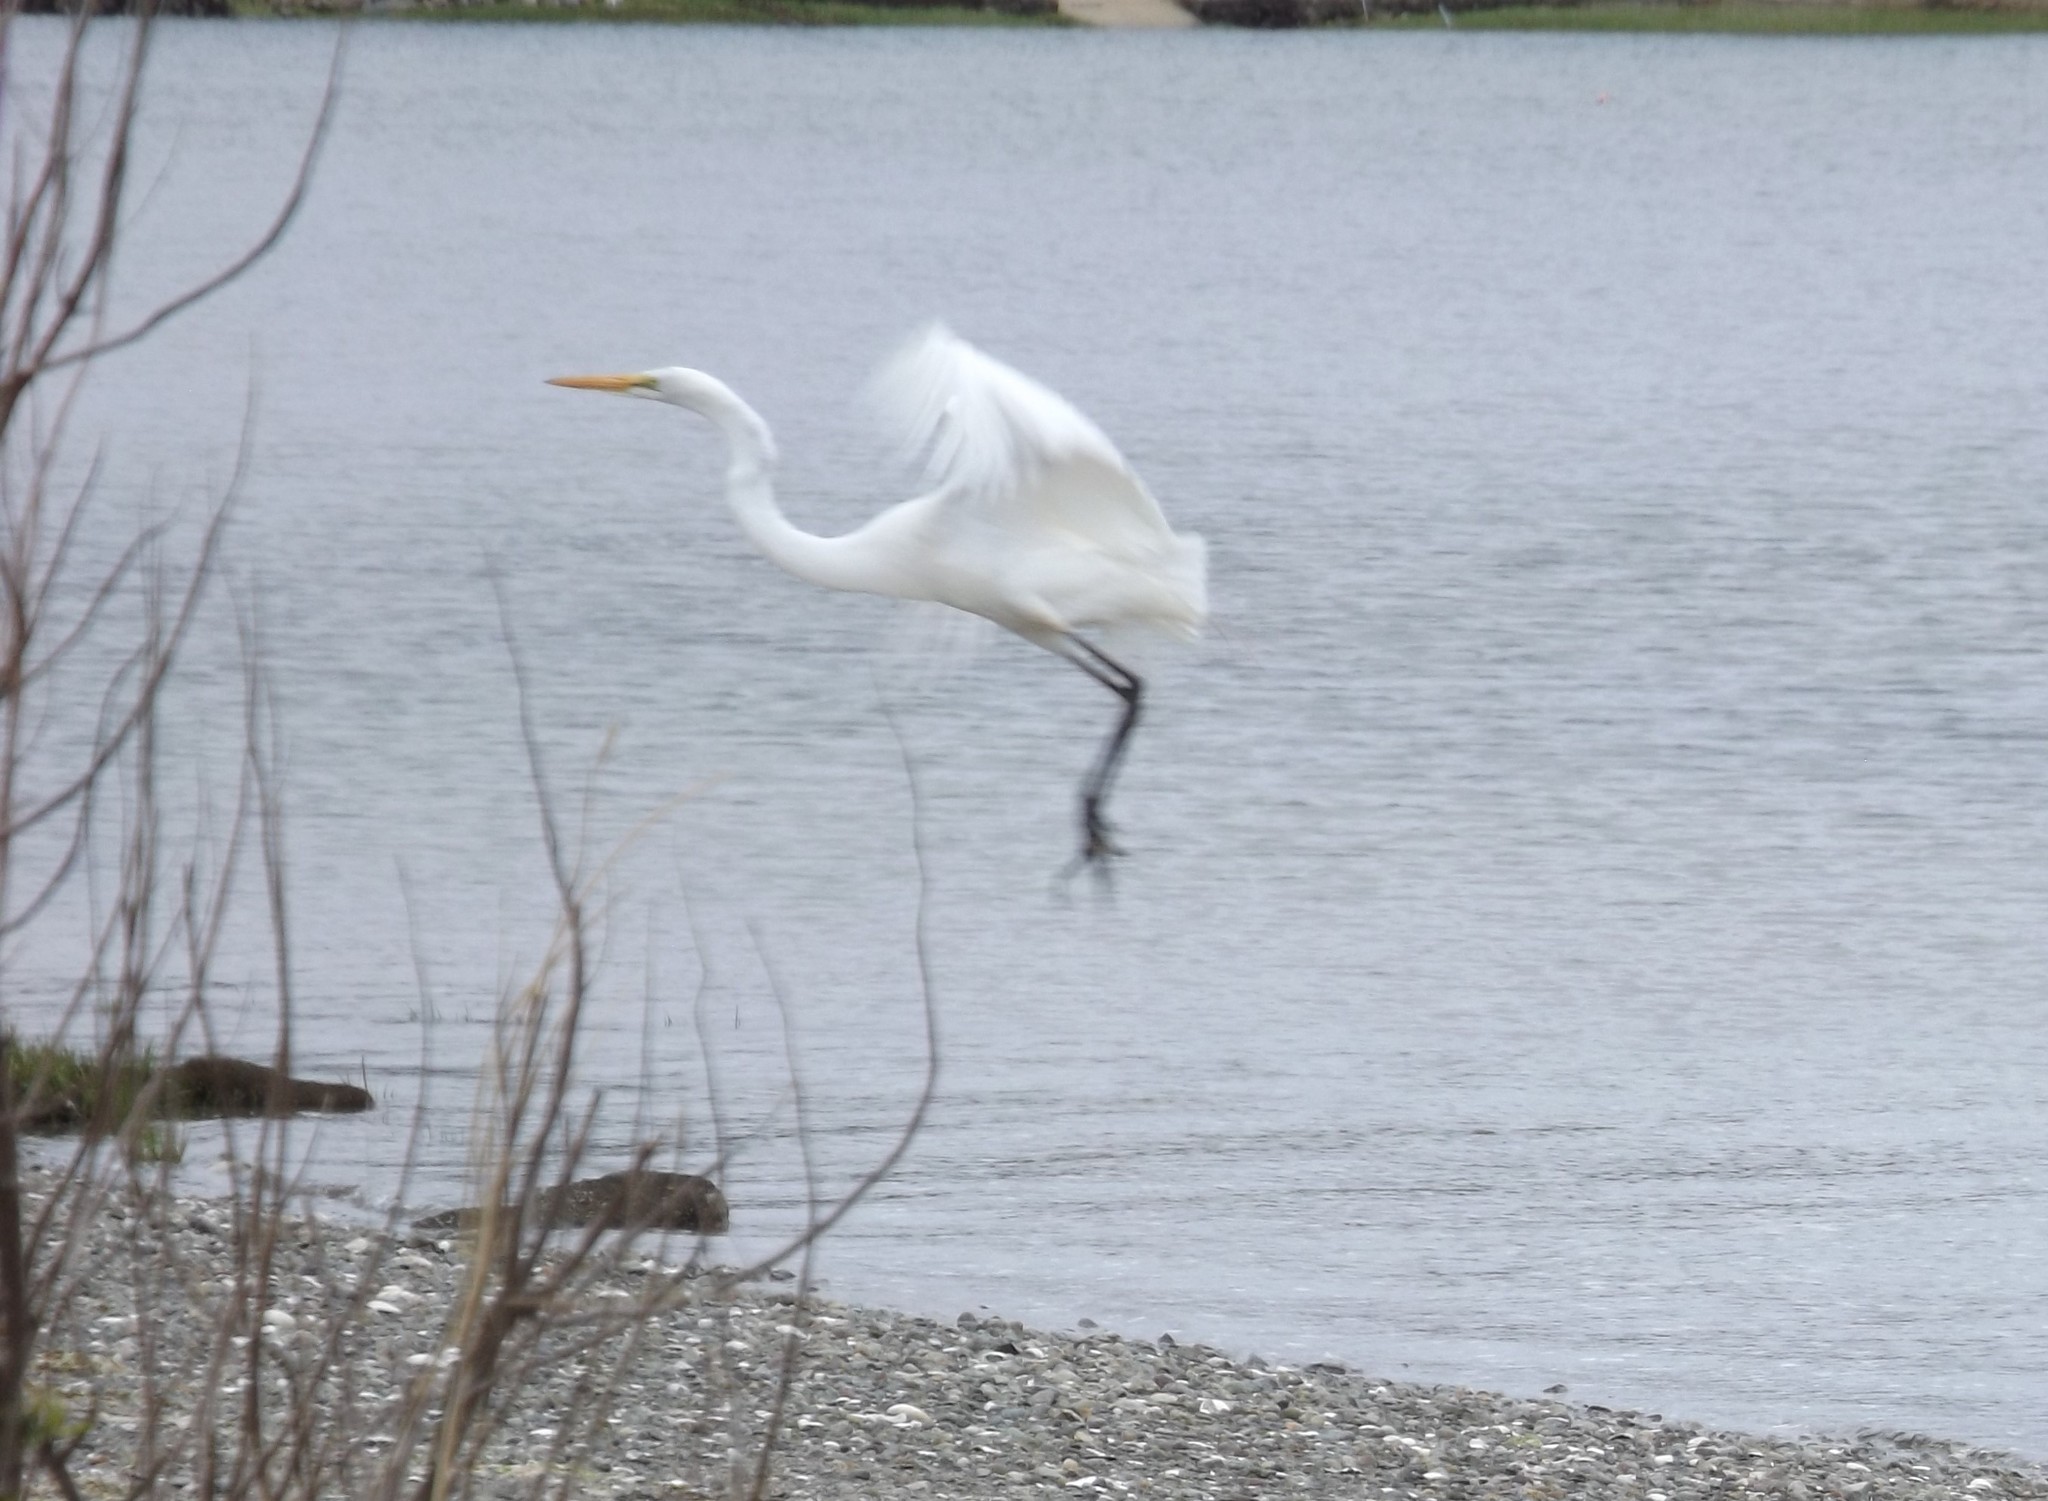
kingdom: Animalia
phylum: Chordata
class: Aves
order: Pelecaniformes
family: Ardeidae
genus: Ardea
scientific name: Ardea alba
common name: Great egret
